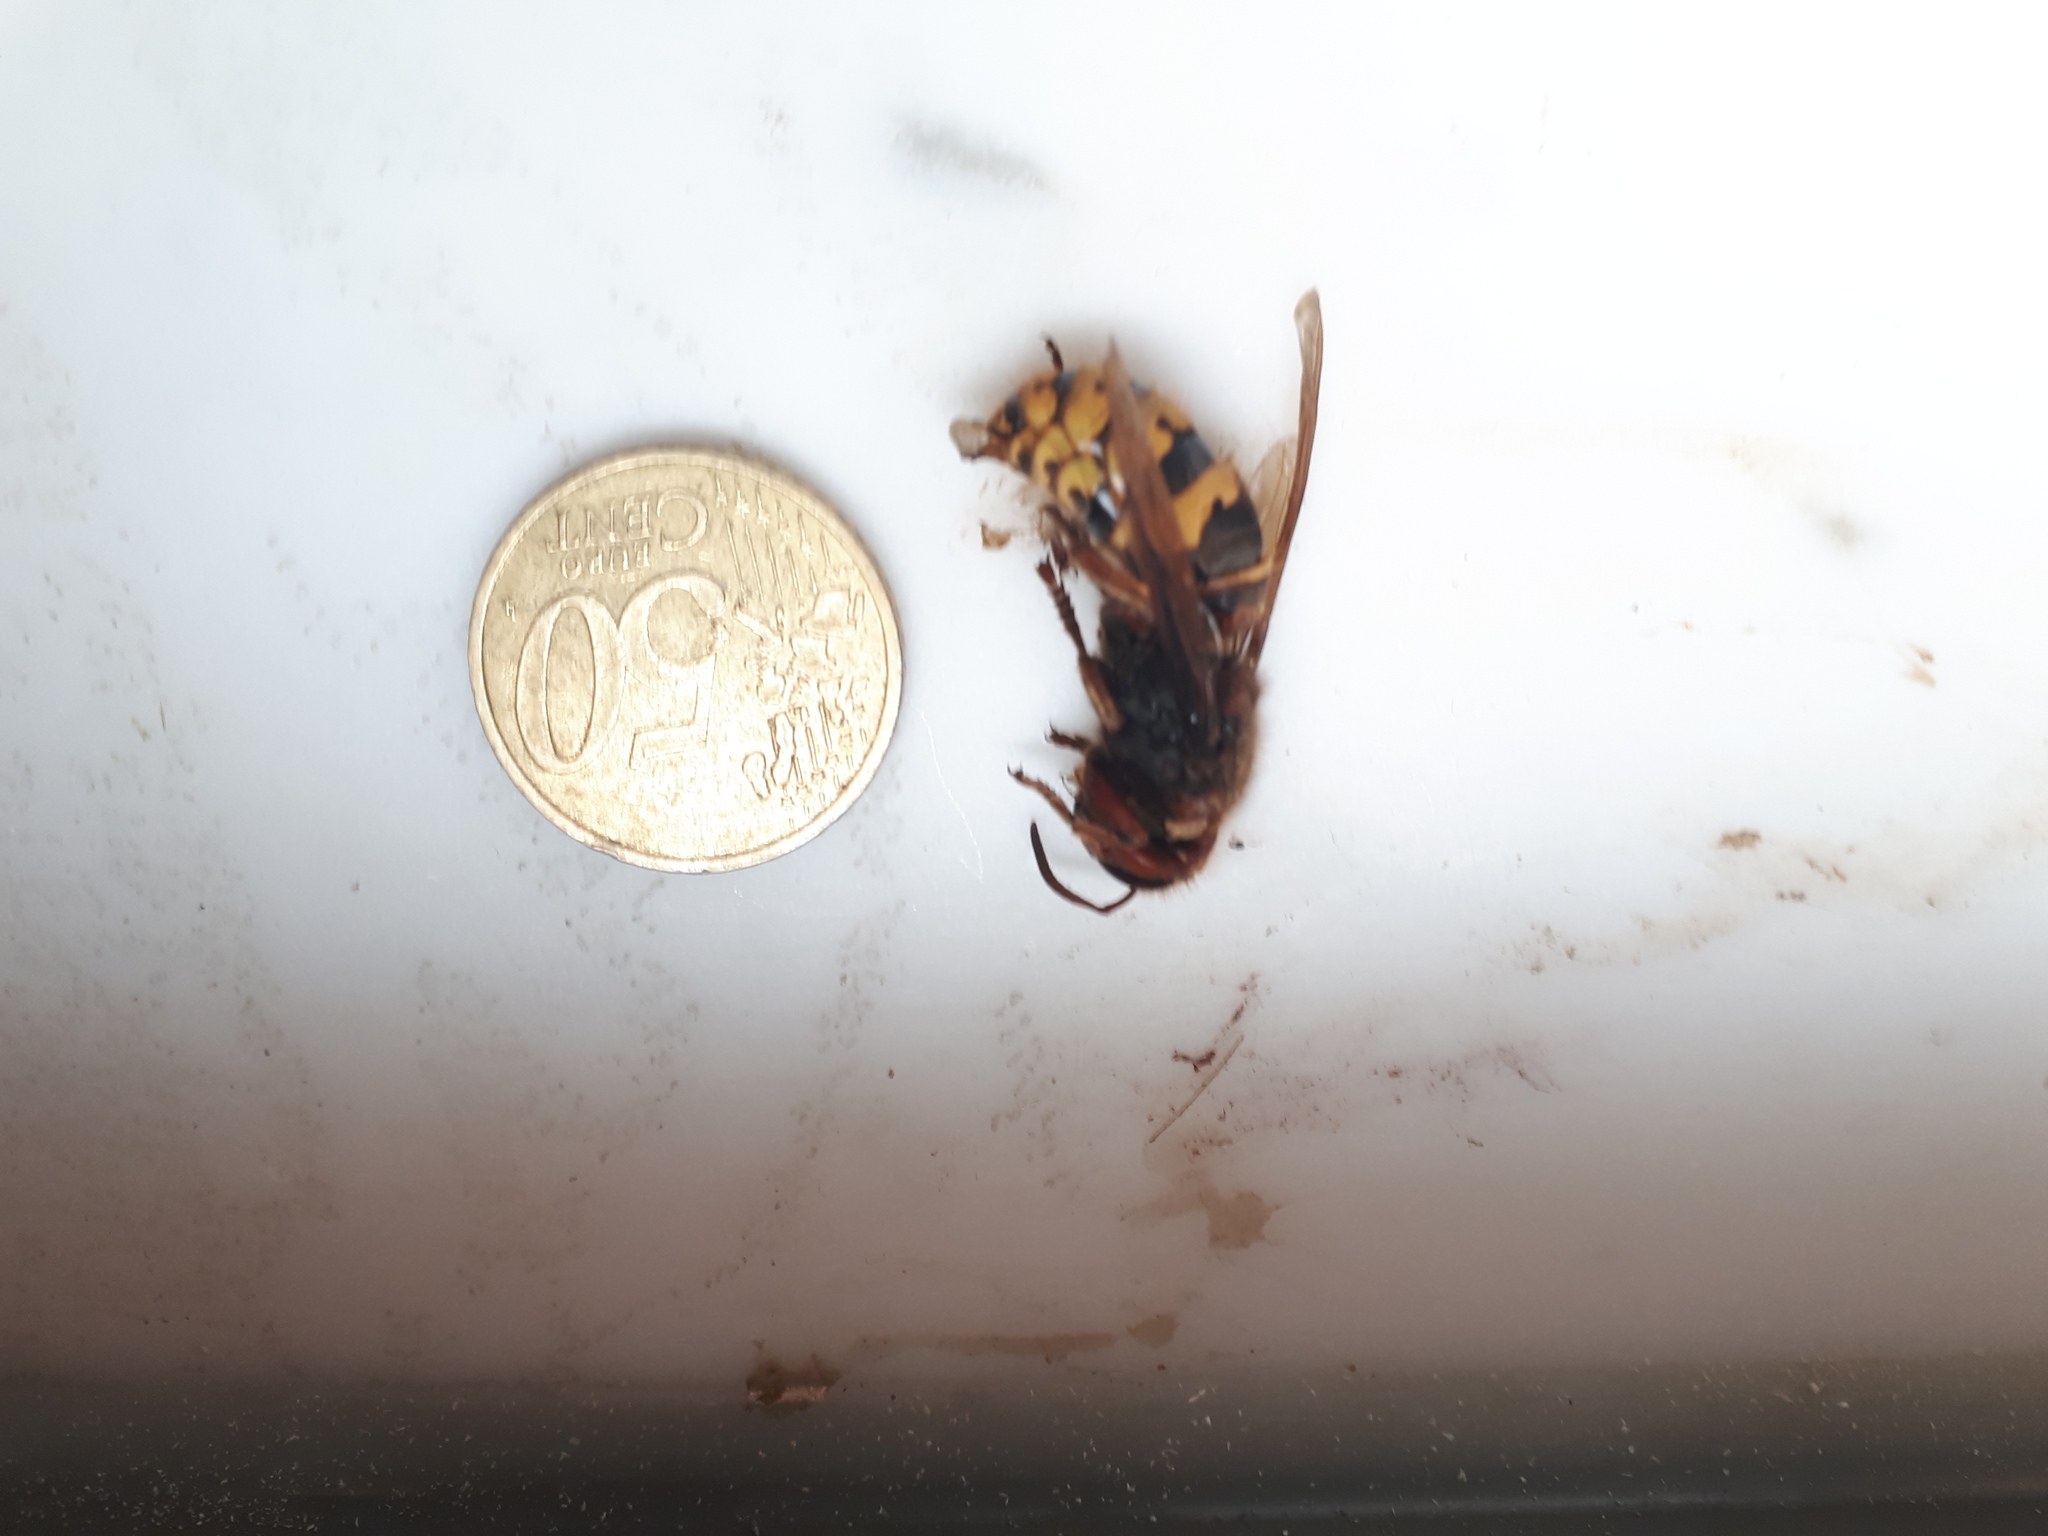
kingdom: Animalia
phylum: Arthropoda
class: Insecta
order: Hymenoptera
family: Vespidae
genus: Vespa
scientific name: Vespa crabro
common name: Hornet
